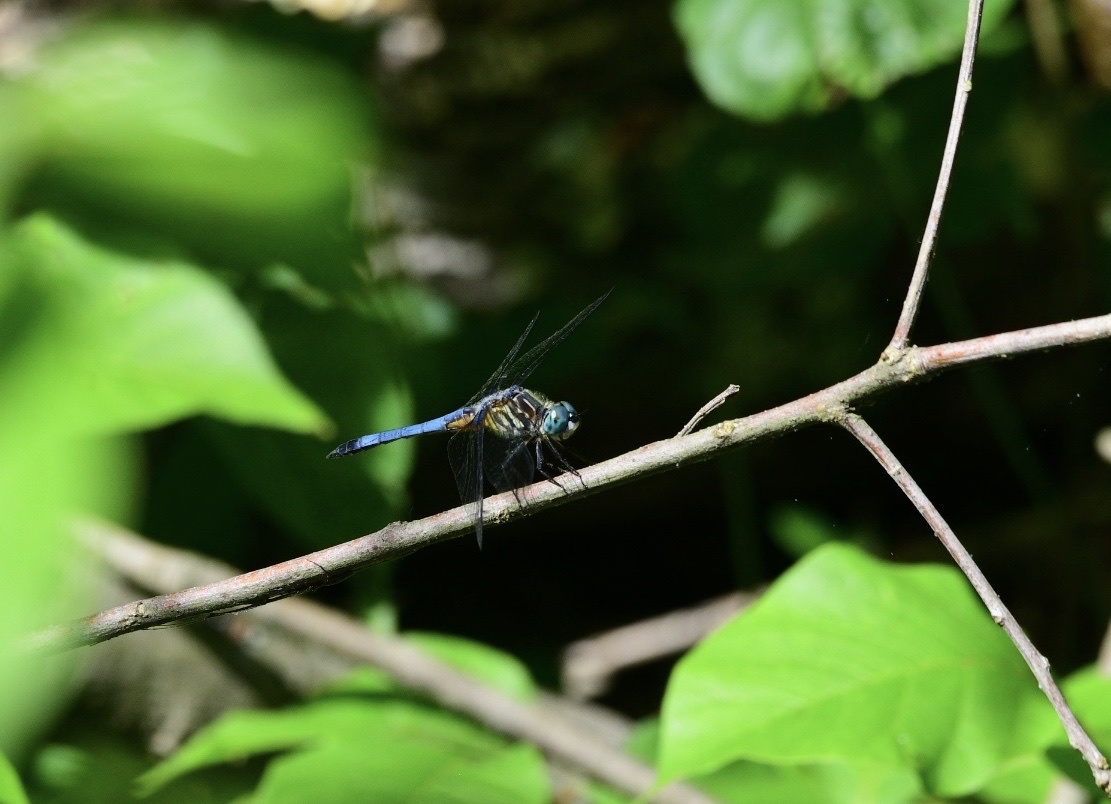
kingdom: Animalia
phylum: Arthropoda
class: Insecta
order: Odonata
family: Libellulidae
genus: Pachydiplax
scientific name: Pachydiplax longipennis
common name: Blue dasher
